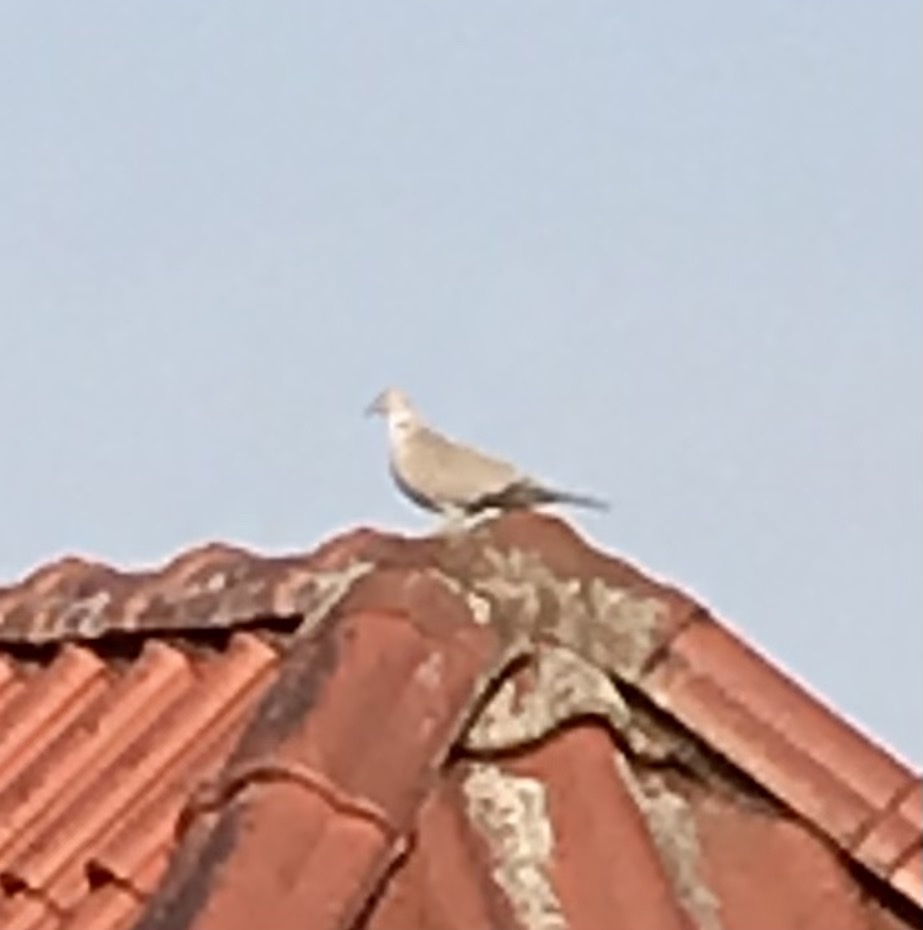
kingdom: Animalia
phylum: Chordata
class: Aves
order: Columbiformes
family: Columbidae
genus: Streptopelia
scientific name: Streptopelia decaocto
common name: Eurasian collared dove
